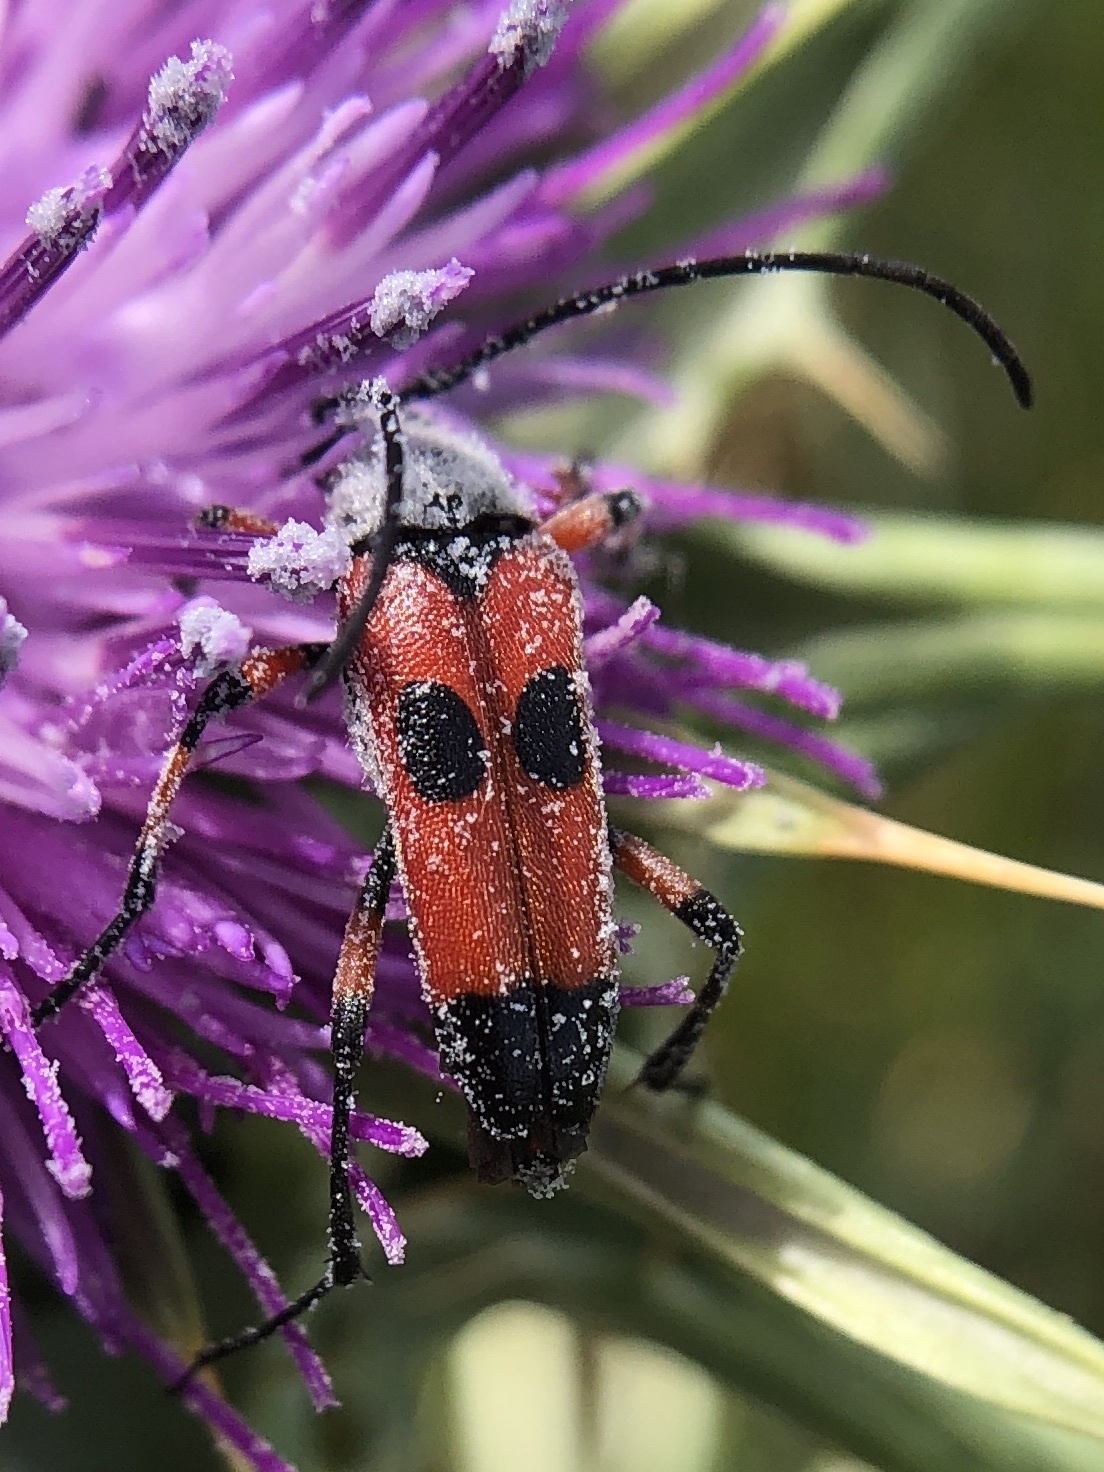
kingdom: Animalia
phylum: Arthropoda
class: Insecta
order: Coleoptera
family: Cerambycidae
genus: Nustera
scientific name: Nustera distigma
